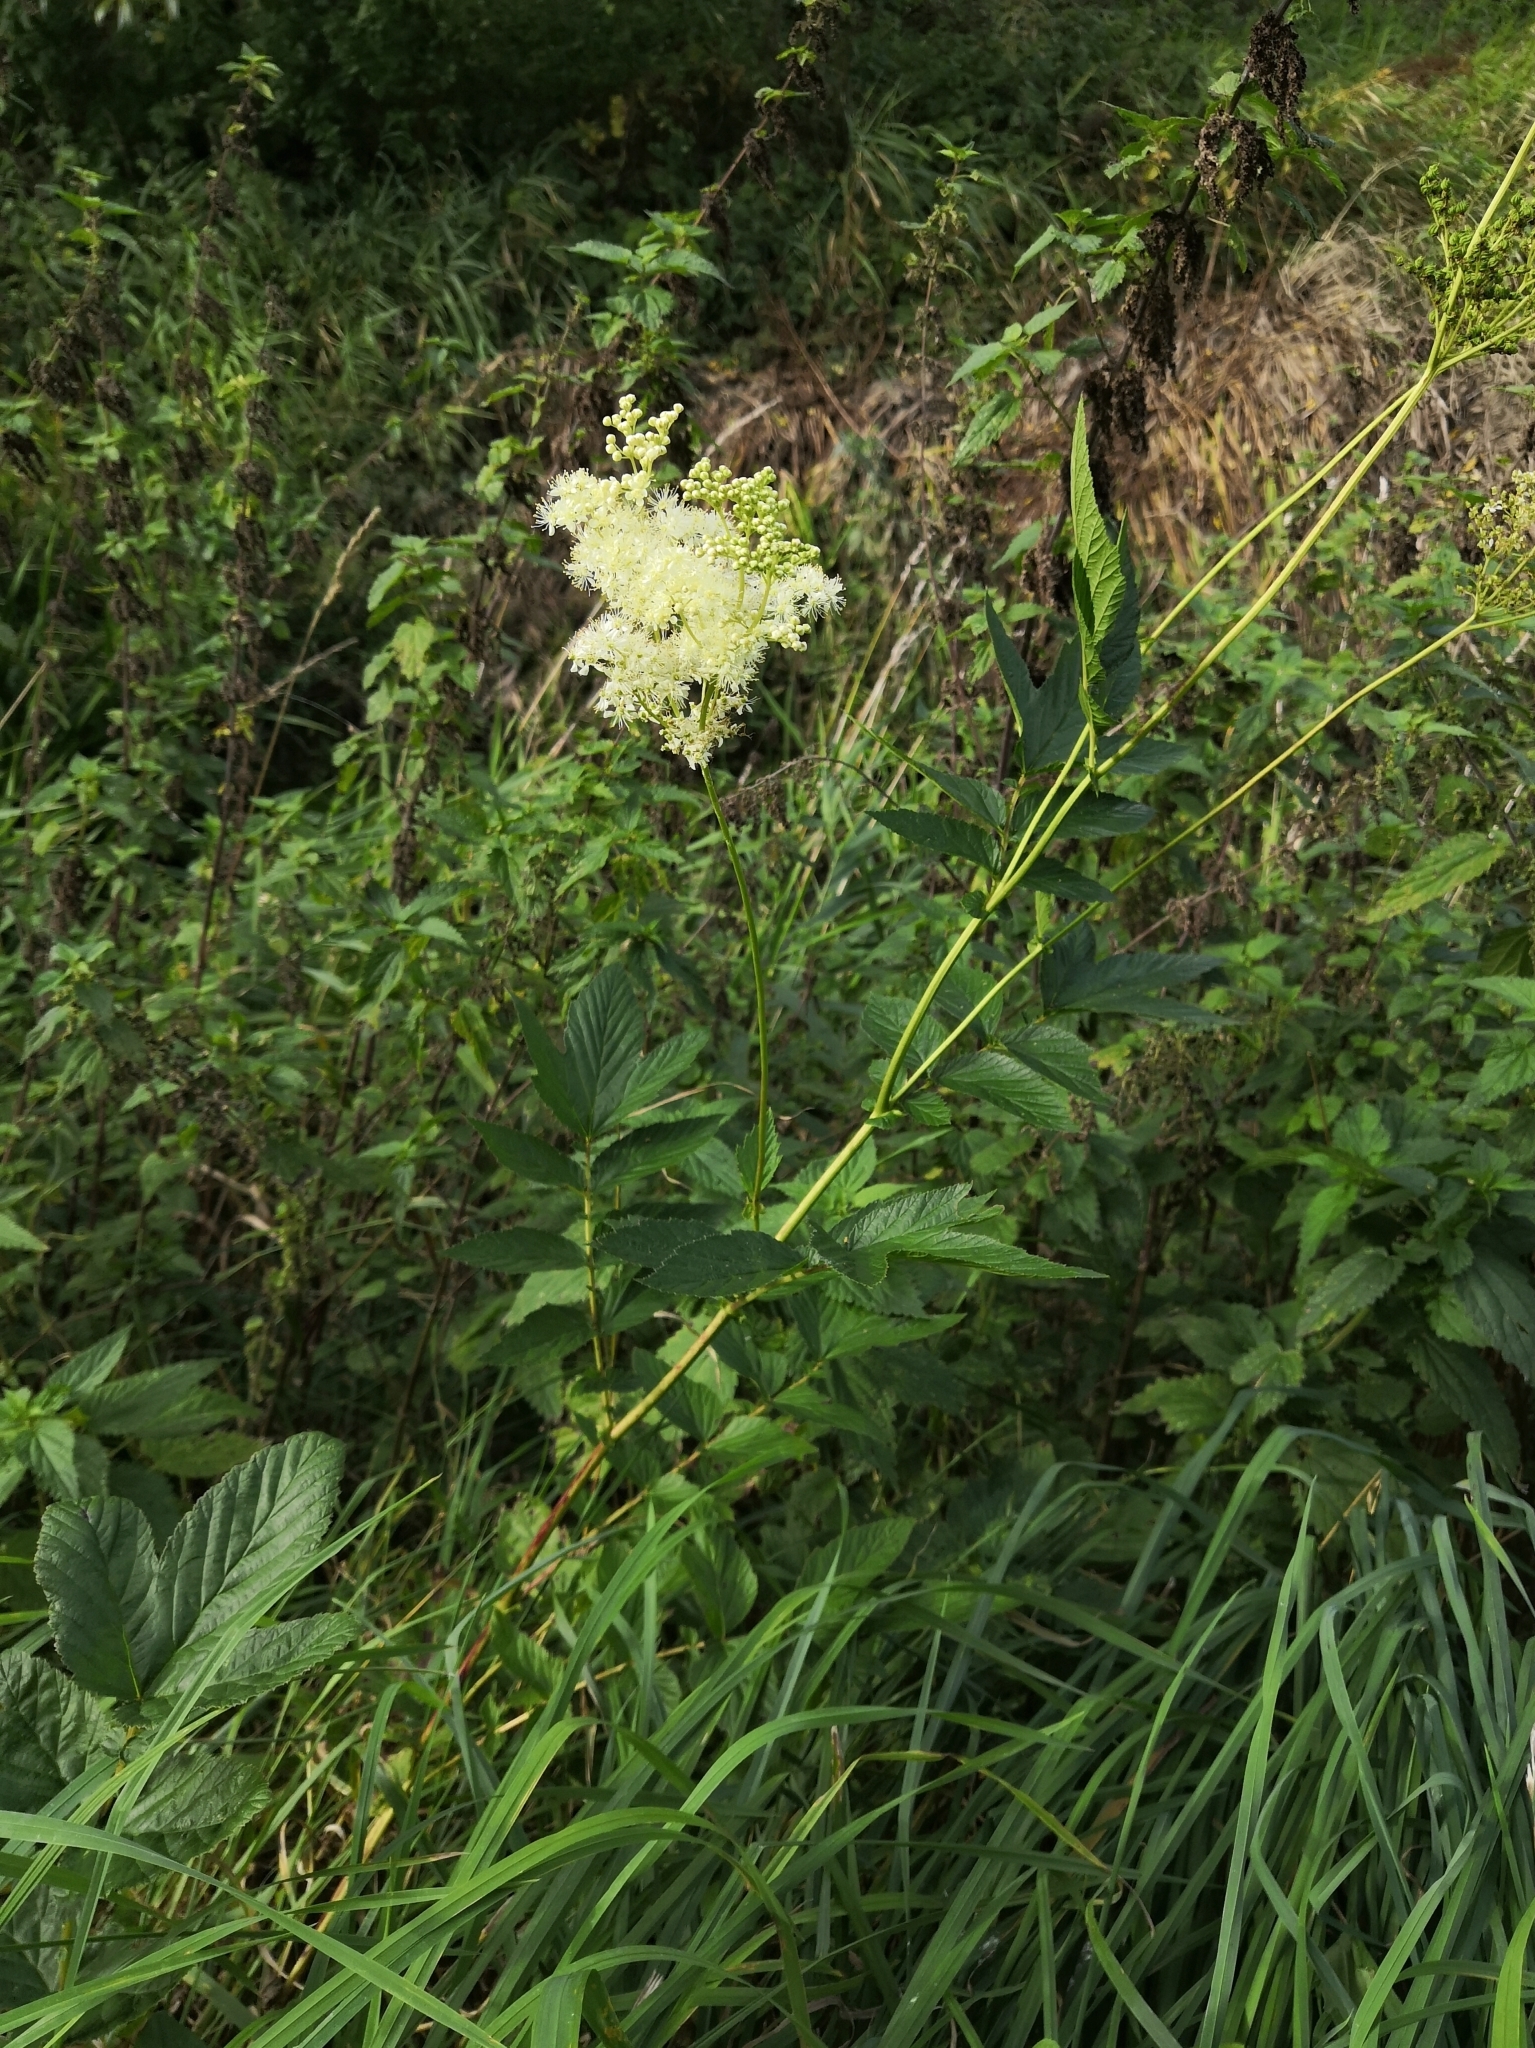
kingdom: Plantae
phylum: Tracheophyta
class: Magnoliopsida
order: Rosales
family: Rosaceae
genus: Filipendula
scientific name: Filipendula ulmaria
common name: Meadowsweet
